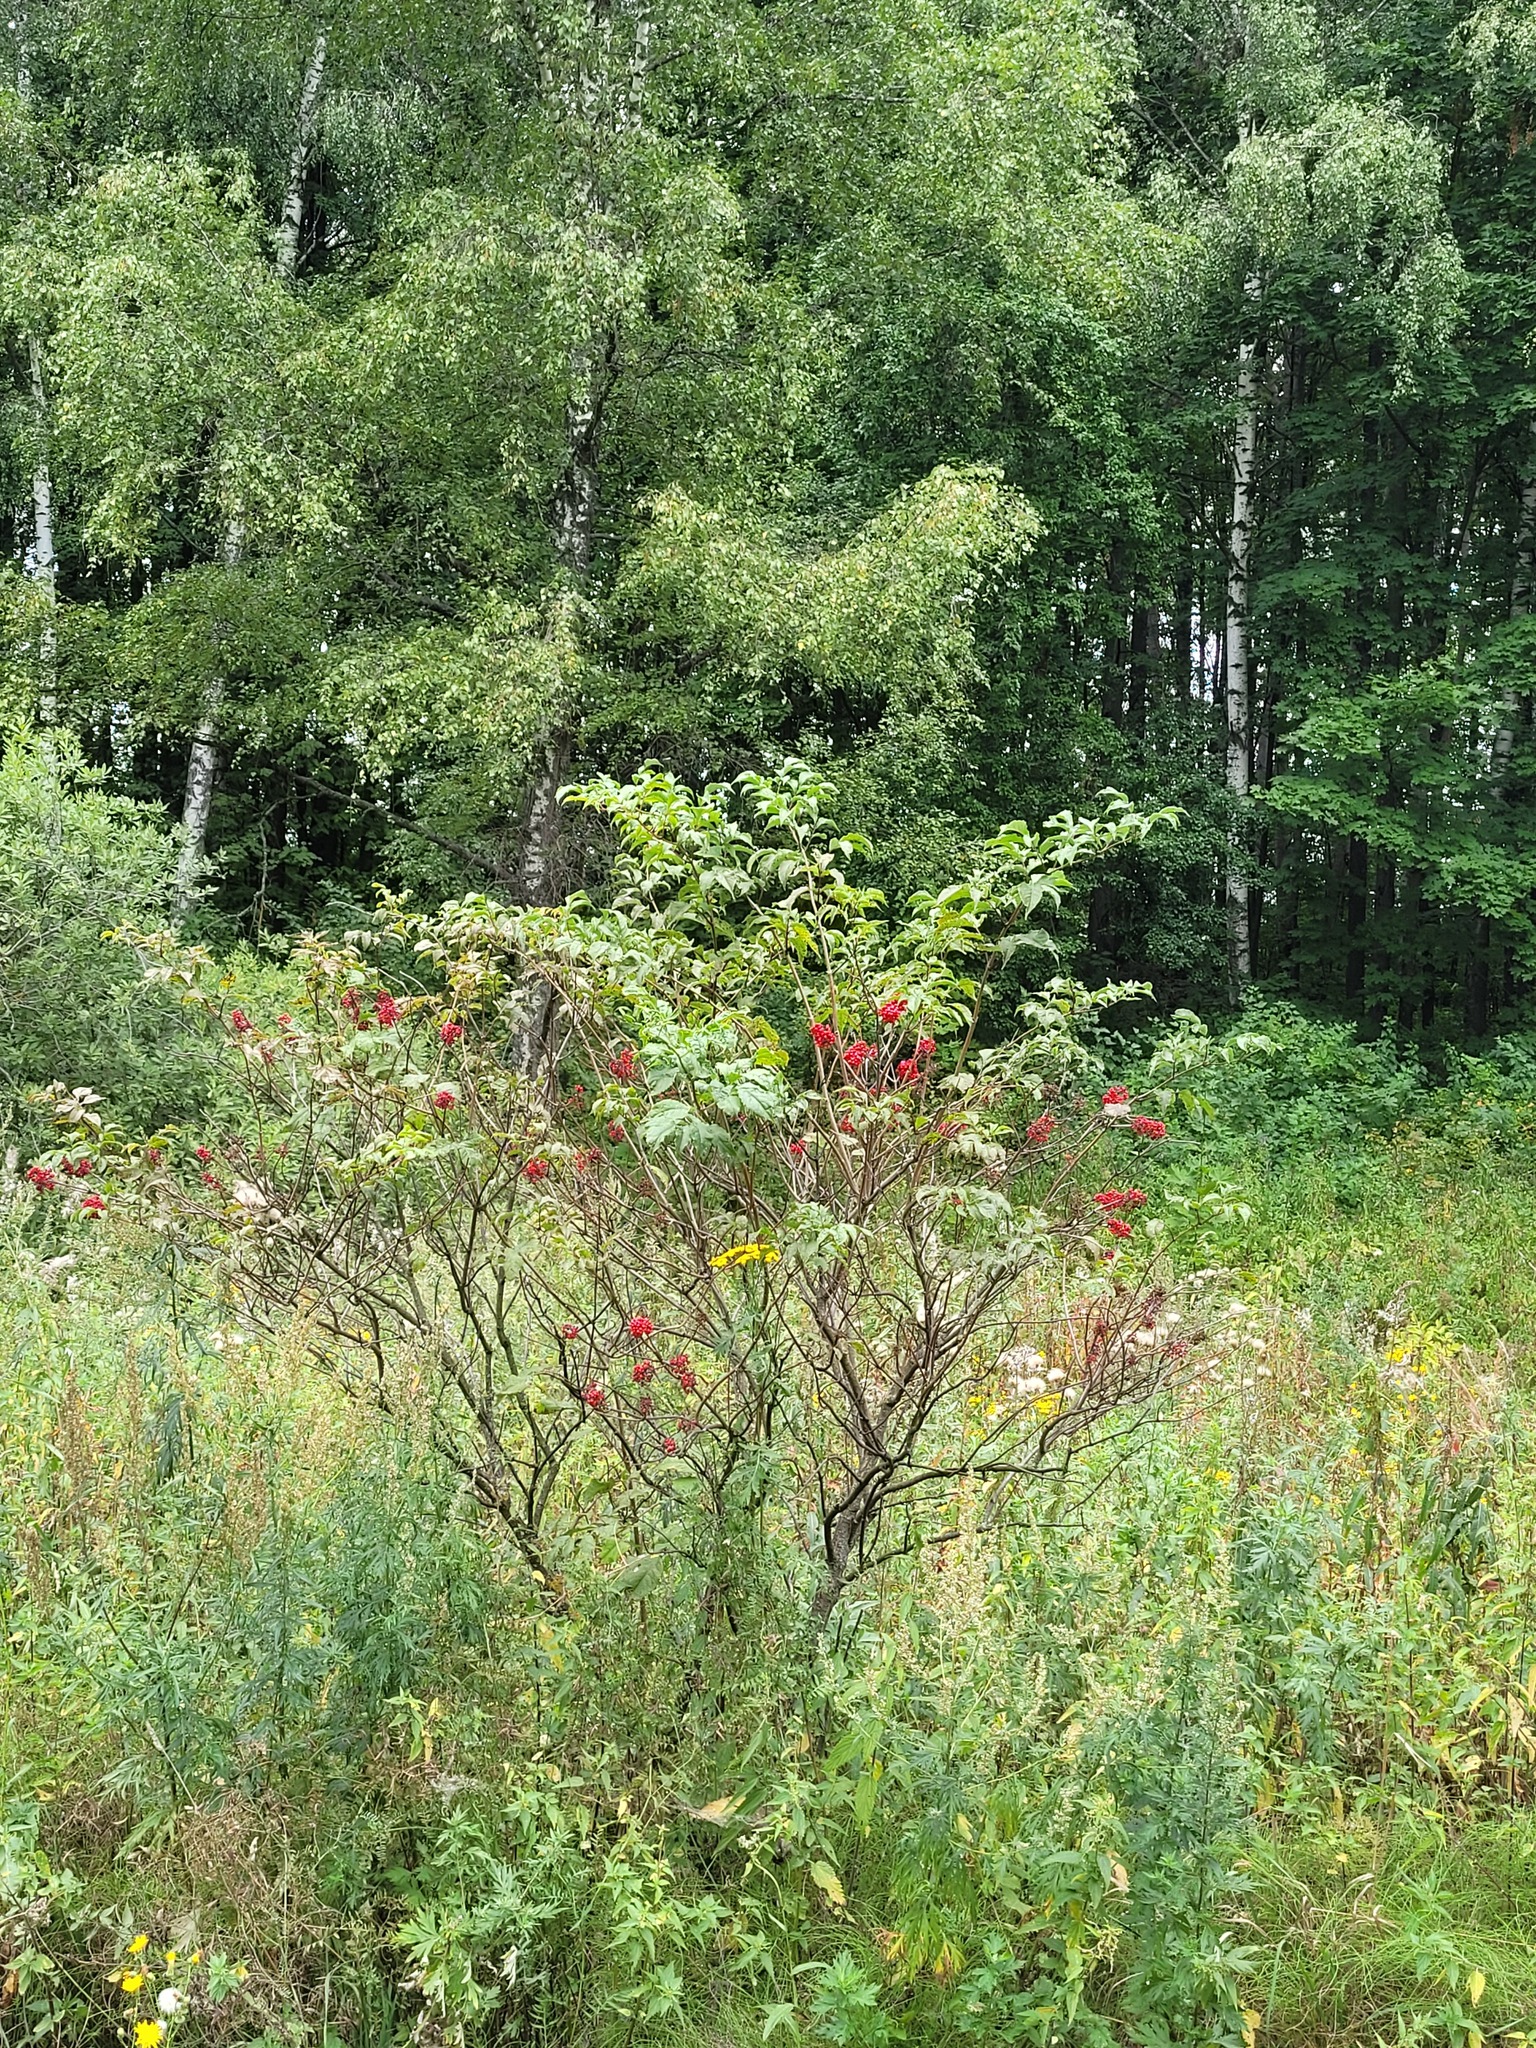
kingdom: Plantae
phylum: Tracheophyta
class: Magnoliopsida
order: Dipsacales
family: Viburnaceae
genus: Sambucus
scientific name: Sambucus racemosa
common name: Red-berried elder
